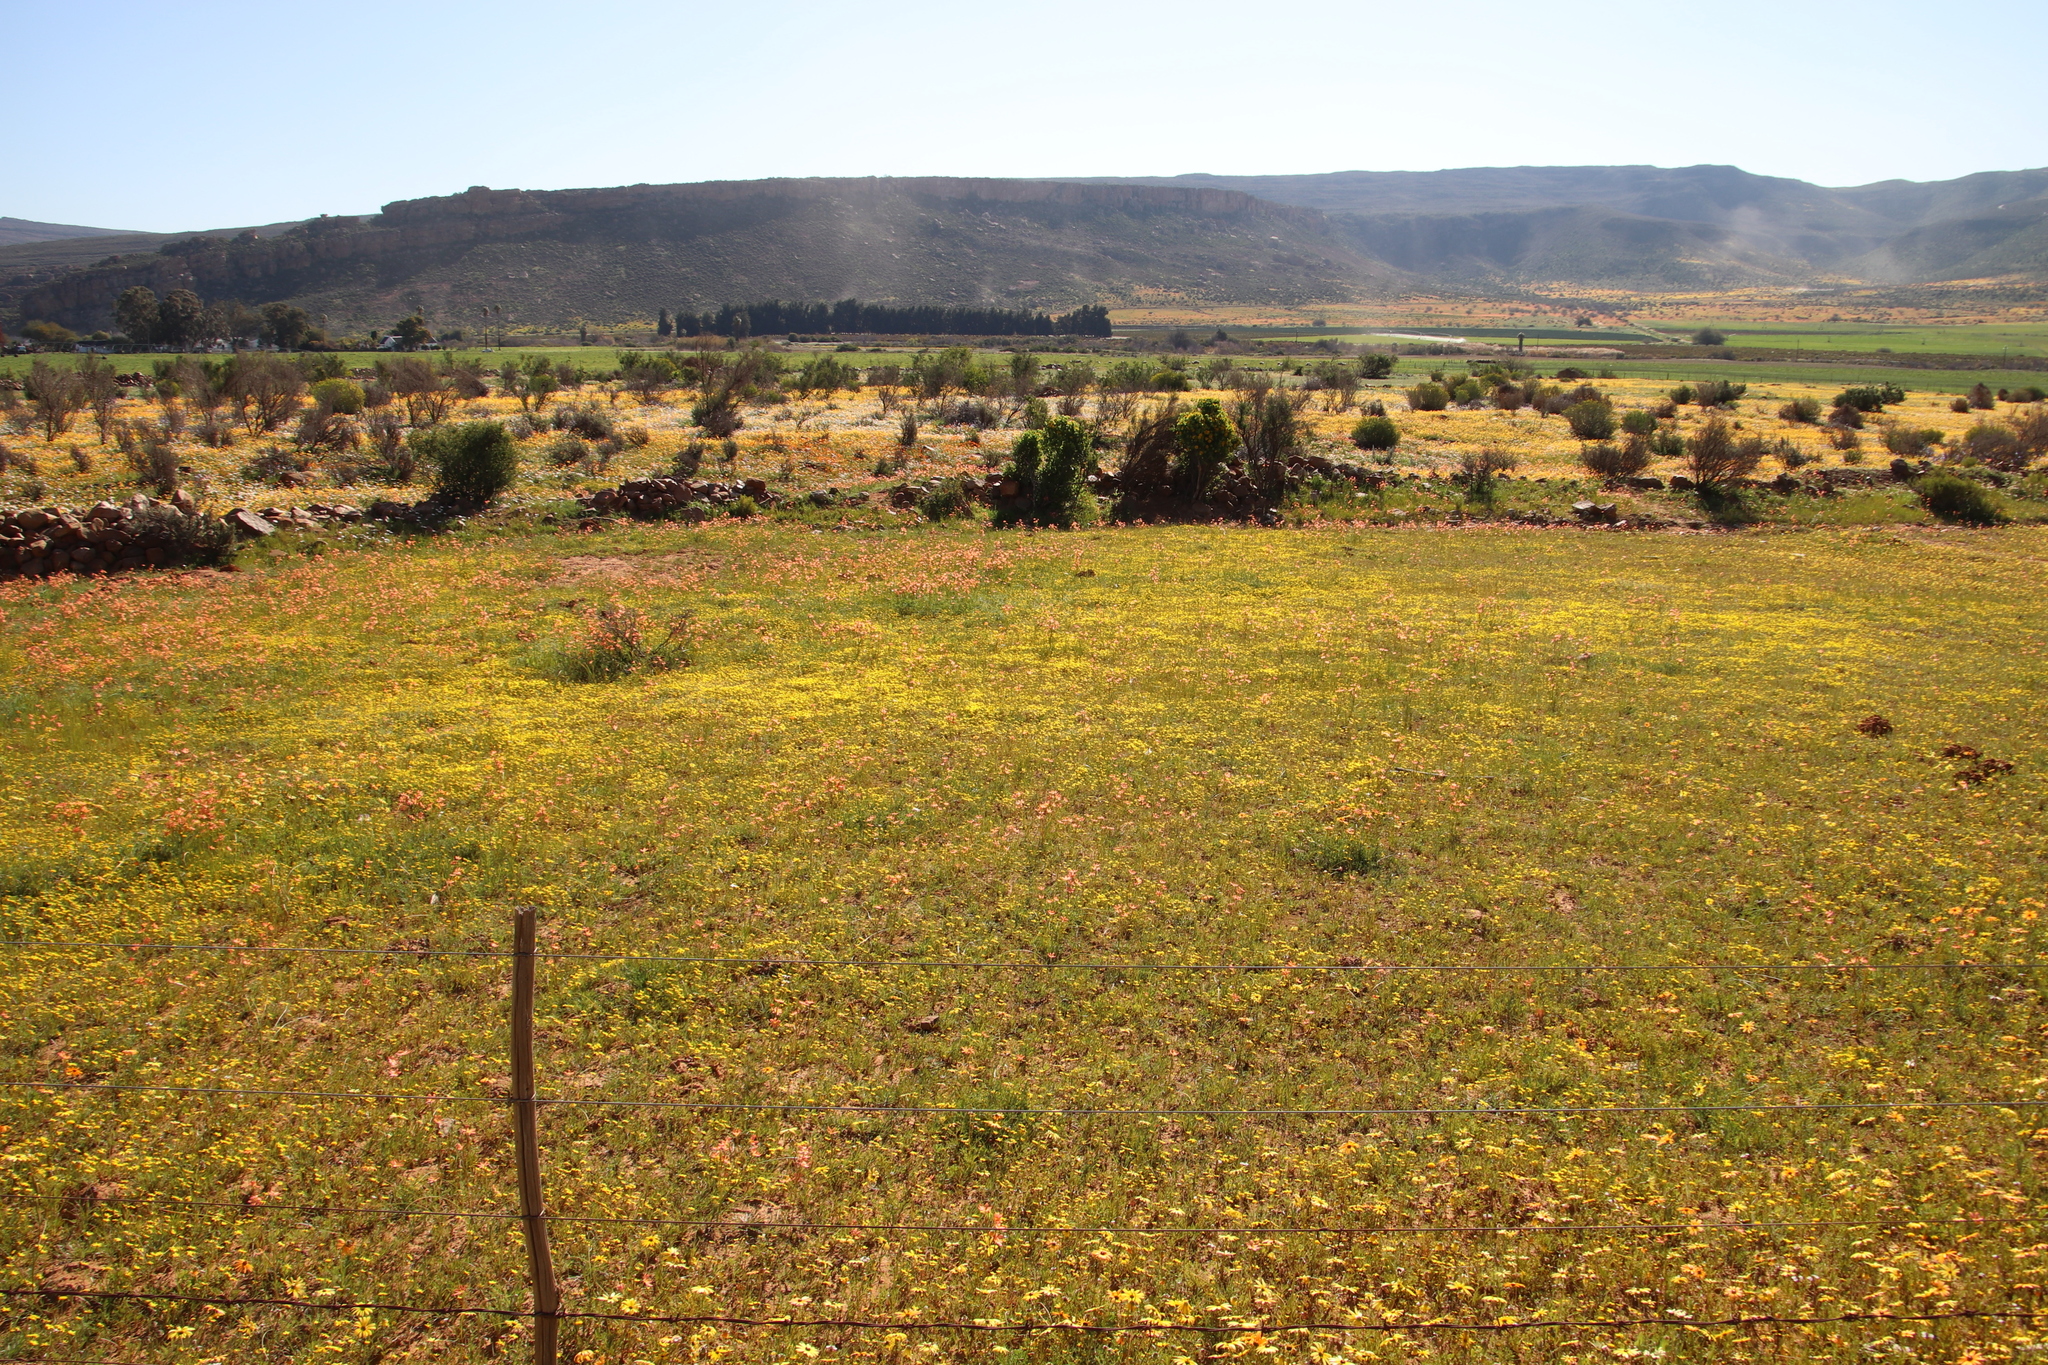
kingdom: Plantae
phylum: Tracheophyta
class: Liliopsida
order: Asparagales
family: Iridaceae
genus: Moraea
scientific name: Moraea miniata
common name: Two-leaf cape-tulip
